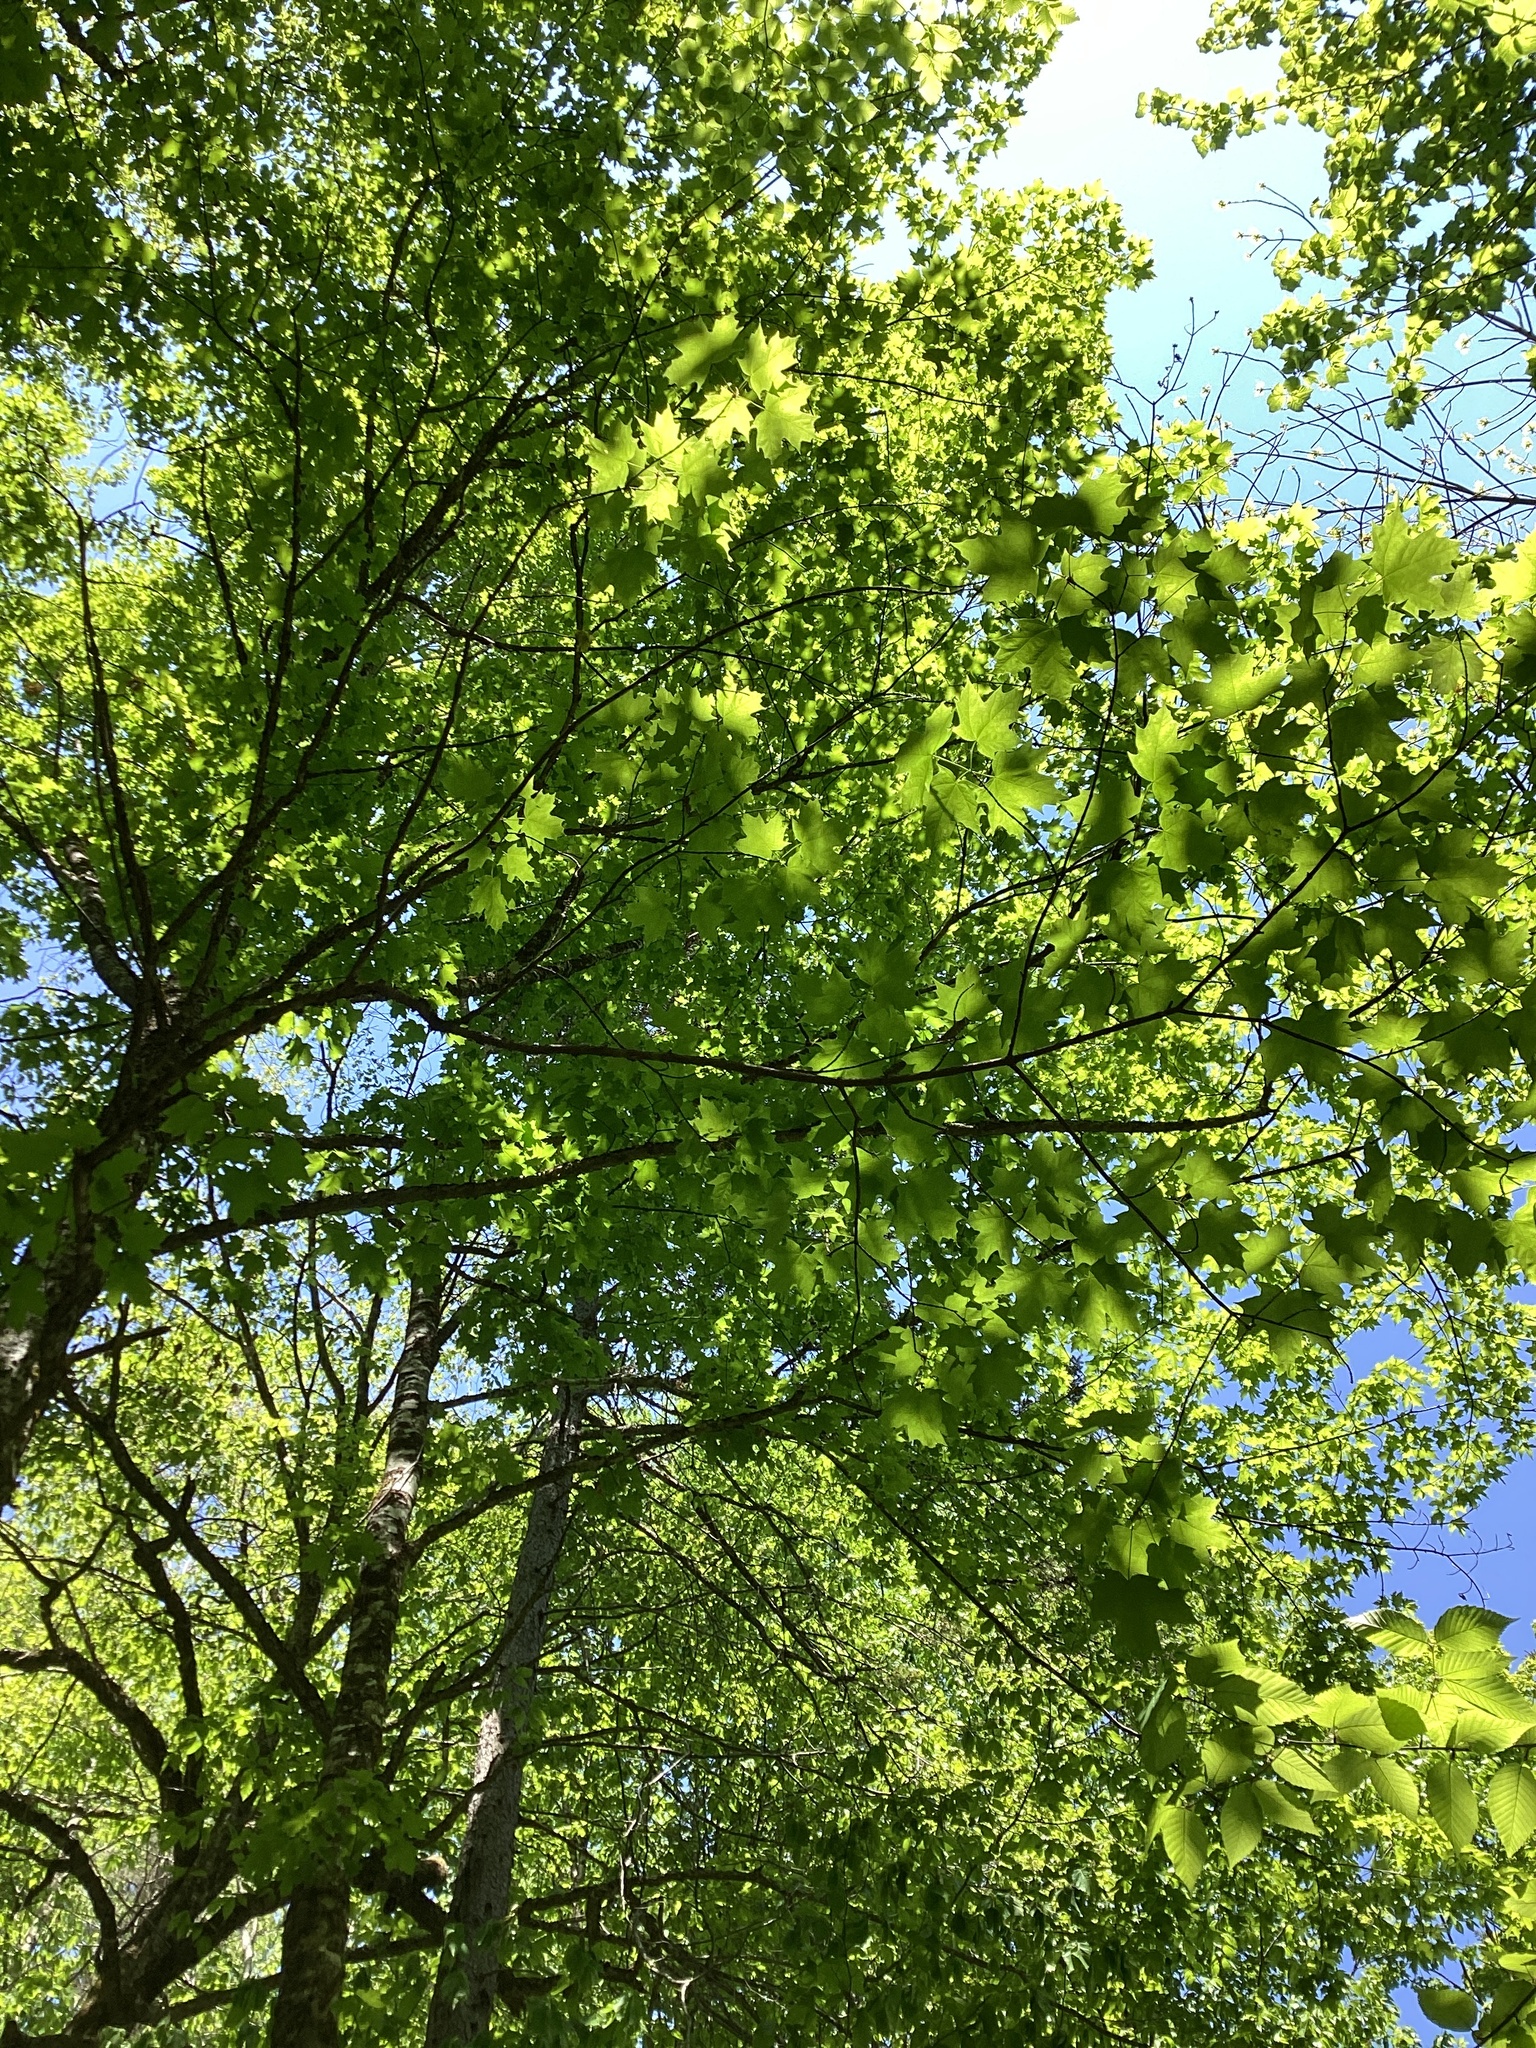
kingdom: Plantae
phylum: Tracheophyta
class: Magnoliopsida
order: Sapindales
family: Sapindaceae
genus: Acer
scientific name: Acer saccharum
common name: Sugar maple
